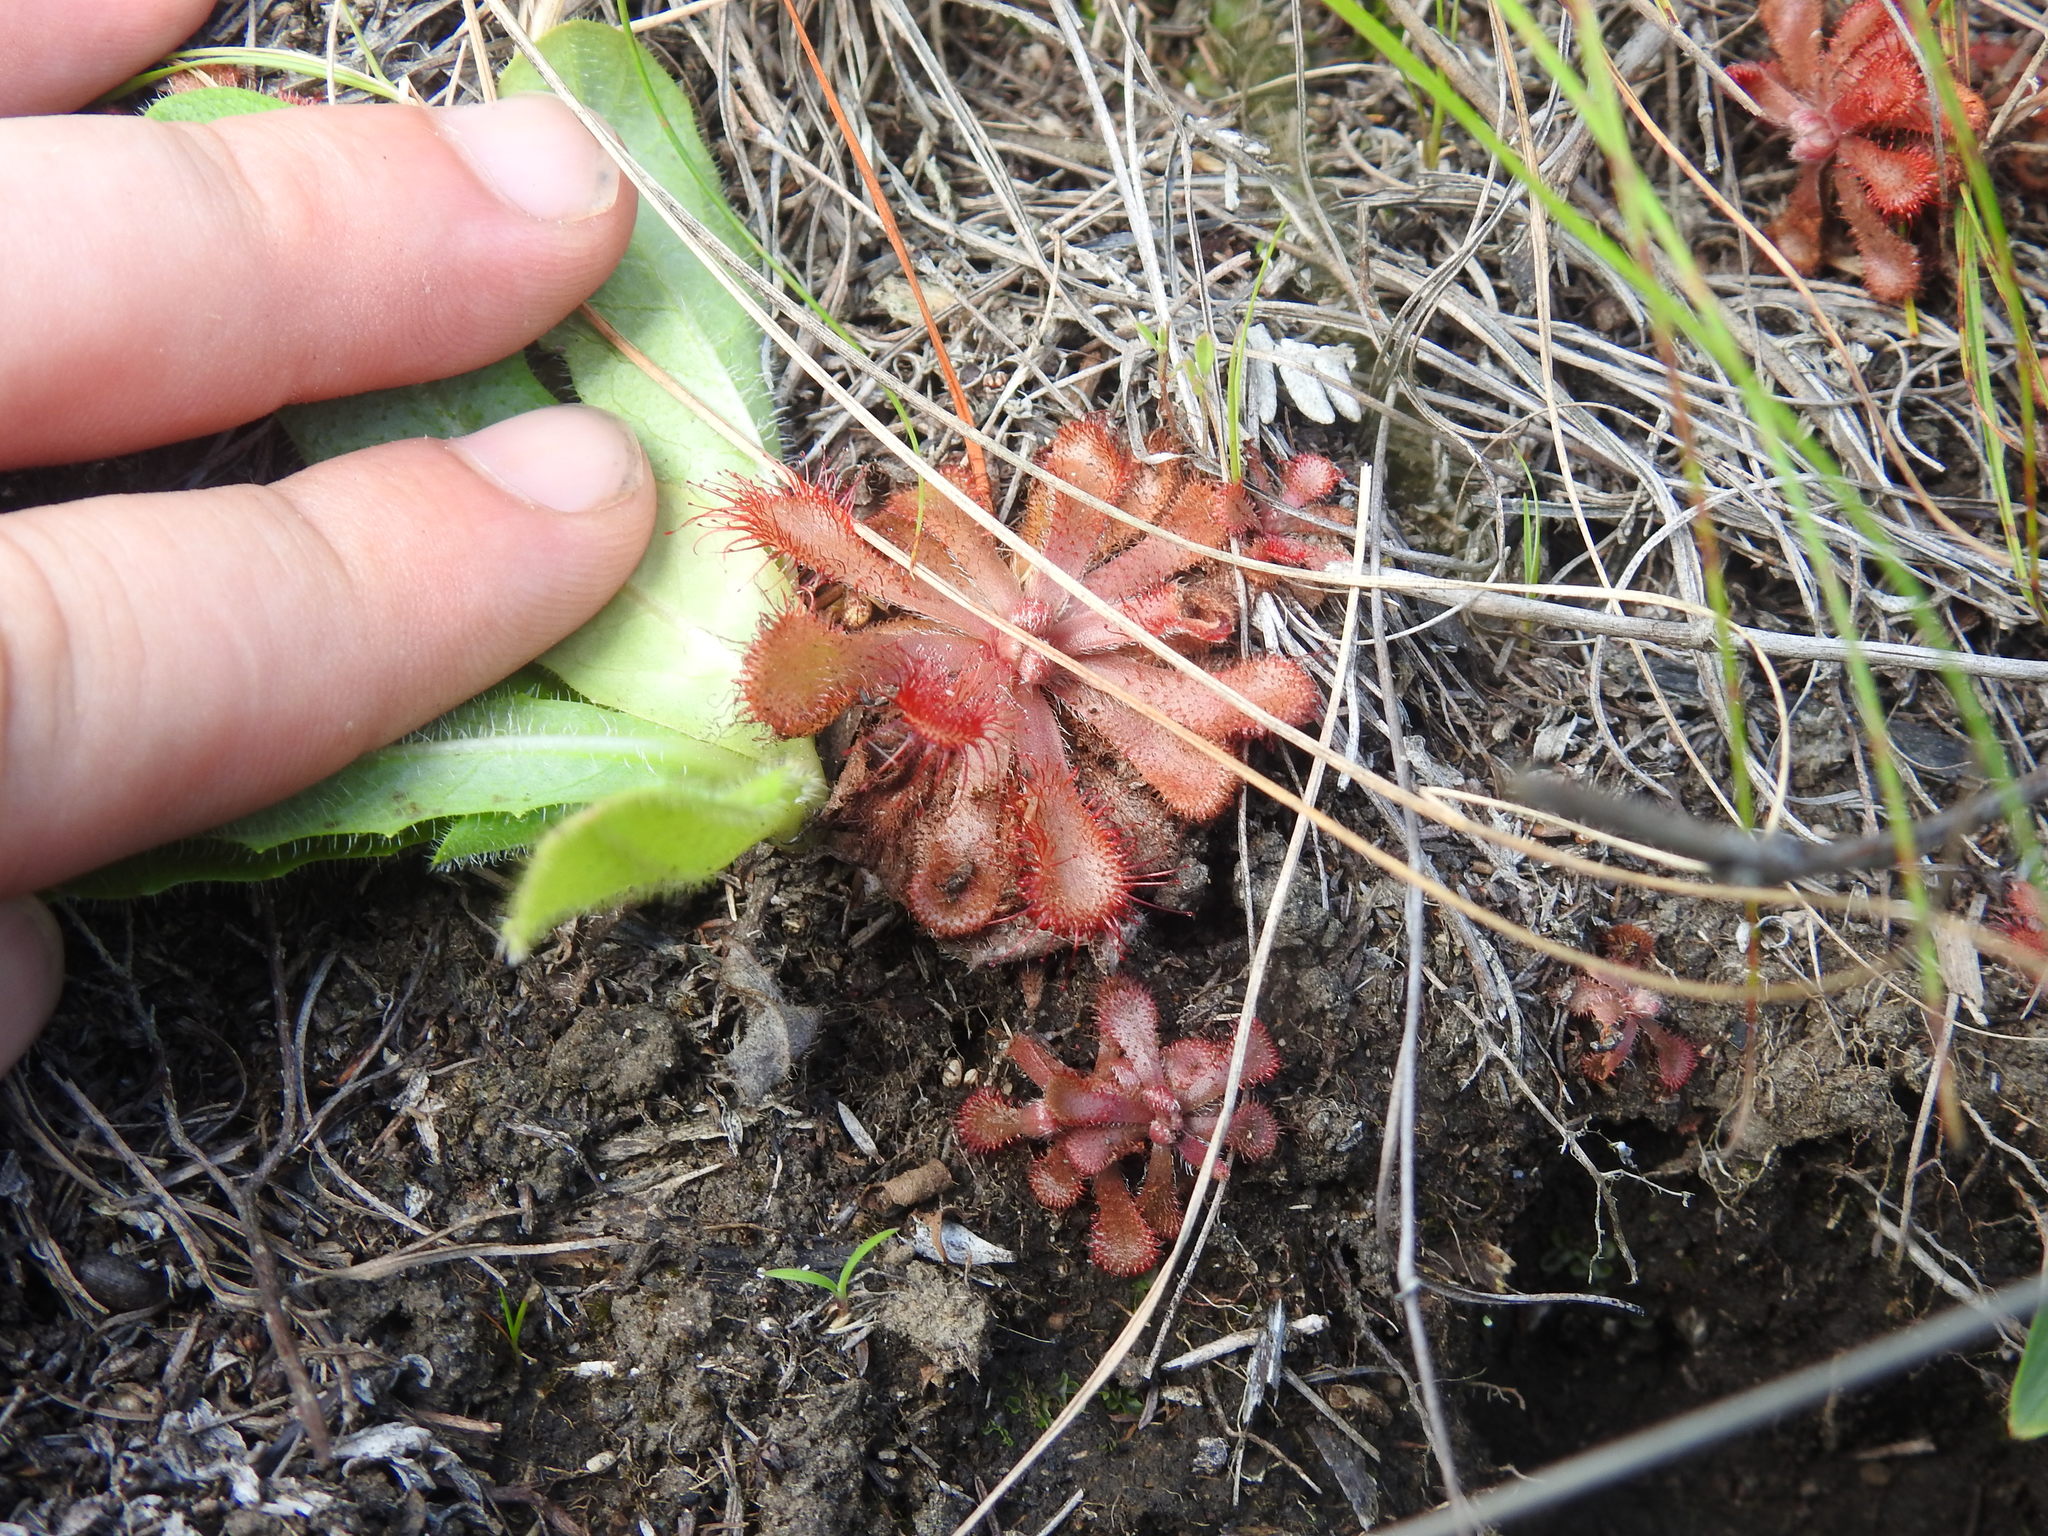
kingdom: Plantae
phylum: Tracheophyta
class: Magnoliopsida
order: Caryophyllales
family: Droseraceae
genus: Drosera
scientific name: Drosera natalensis
